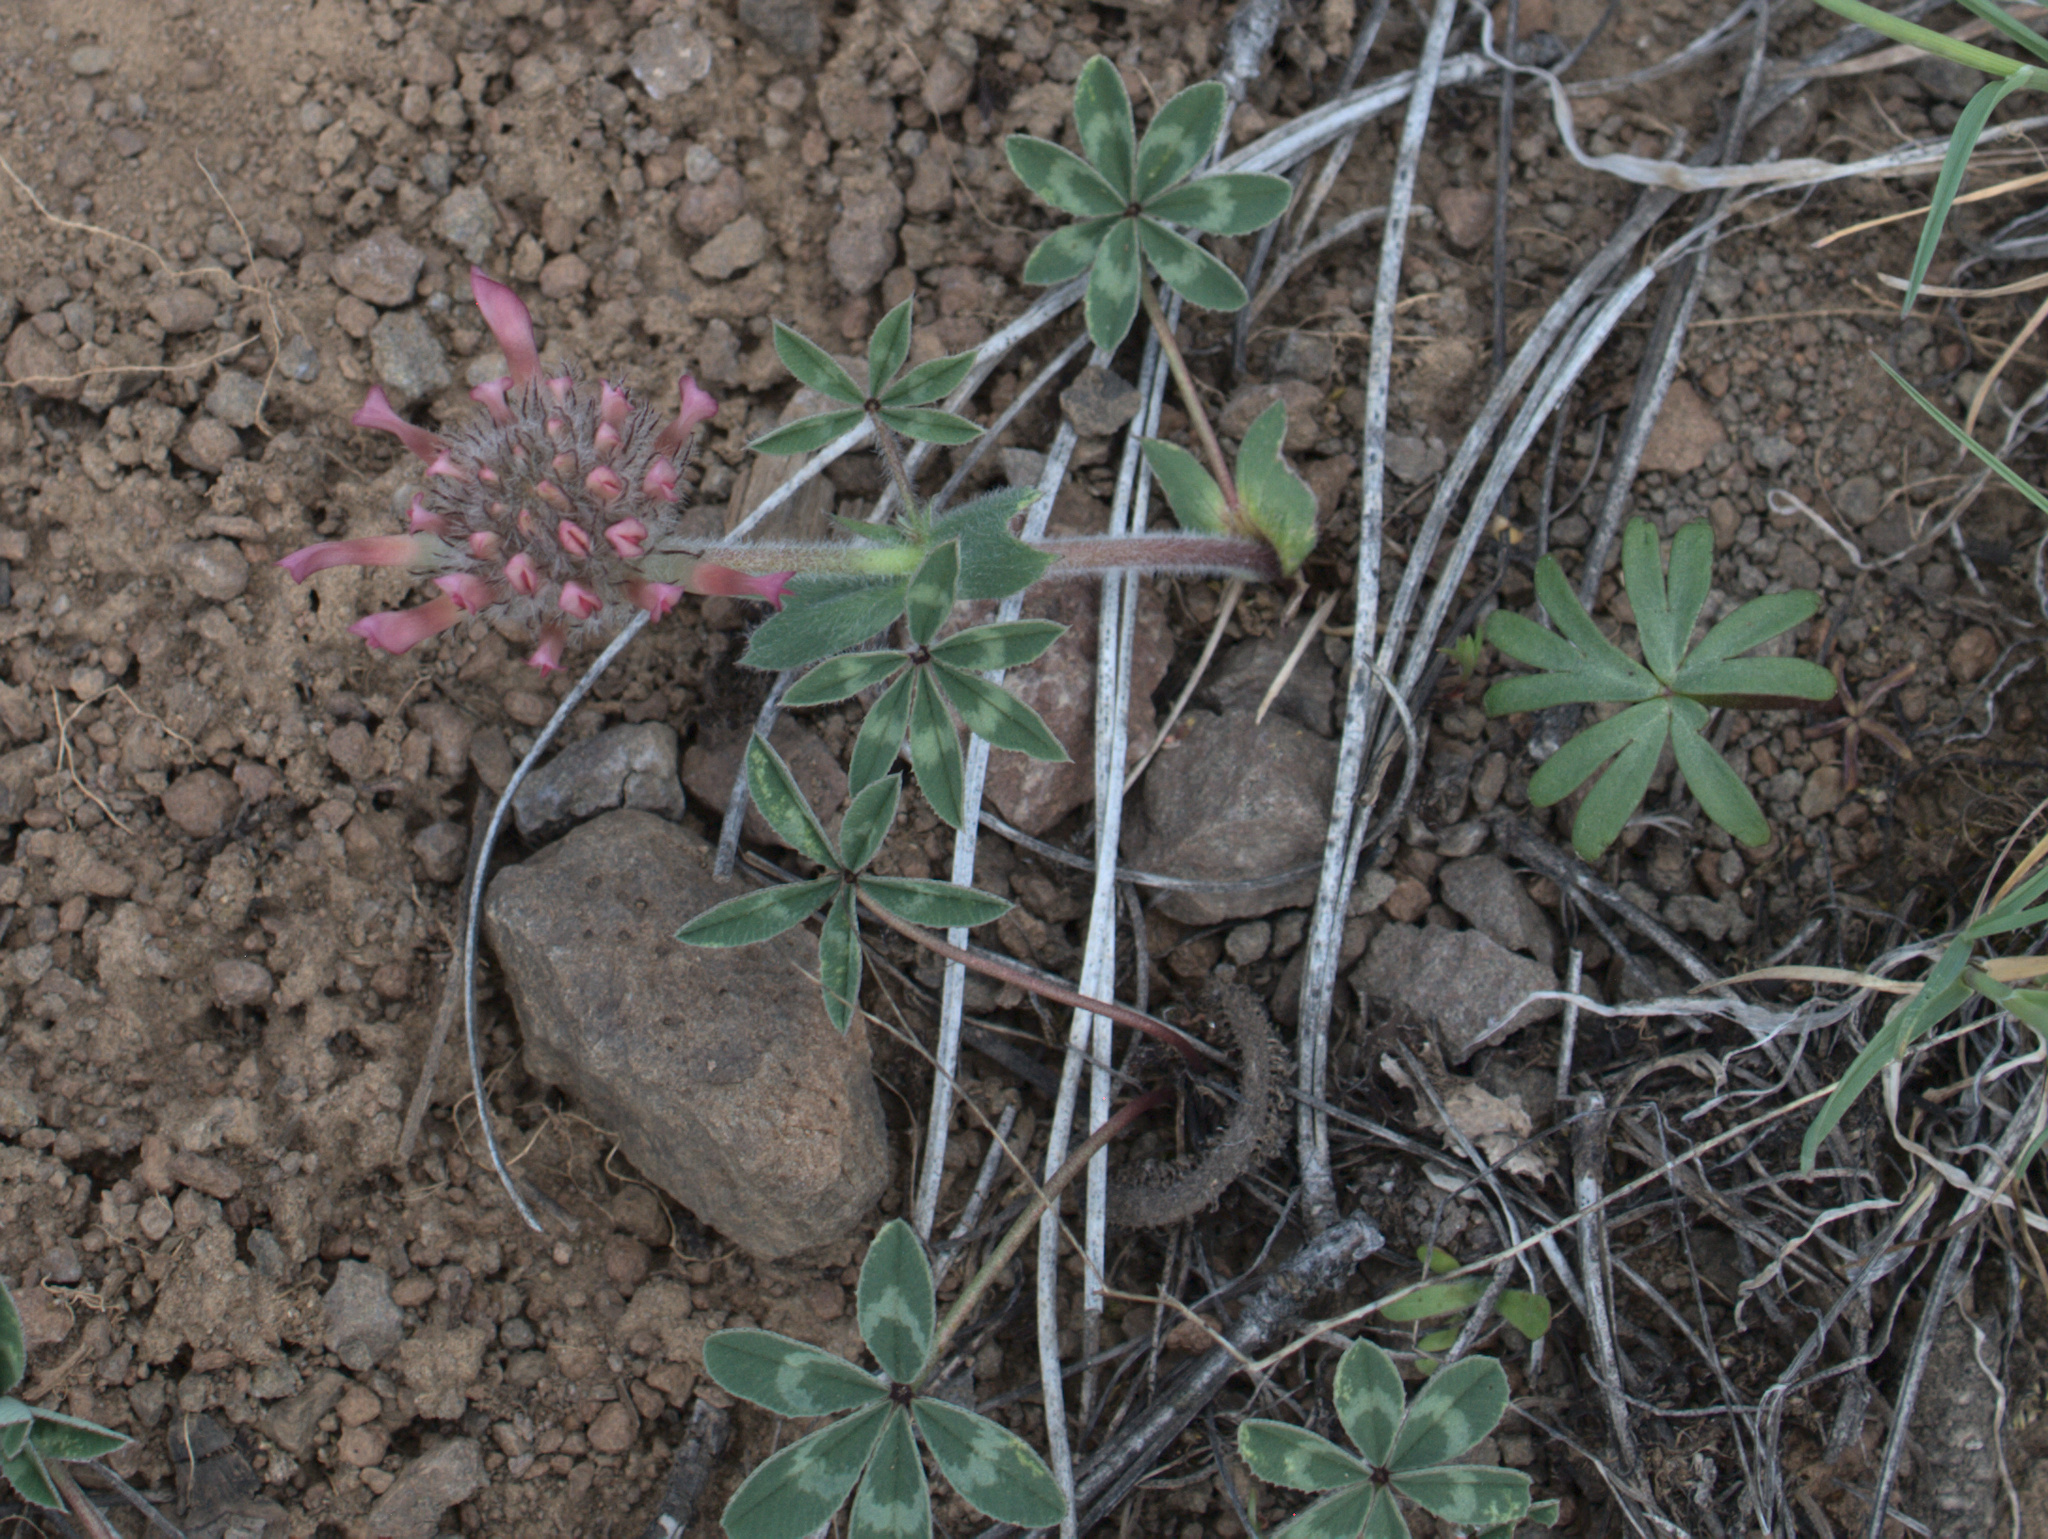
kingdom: Plantae
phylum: Tracheophyta
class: Magnoliopsida
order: Fabales
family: Fabaceae
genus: Trifolium
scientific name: Trifolium macrocephalum
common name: Large-head clover
